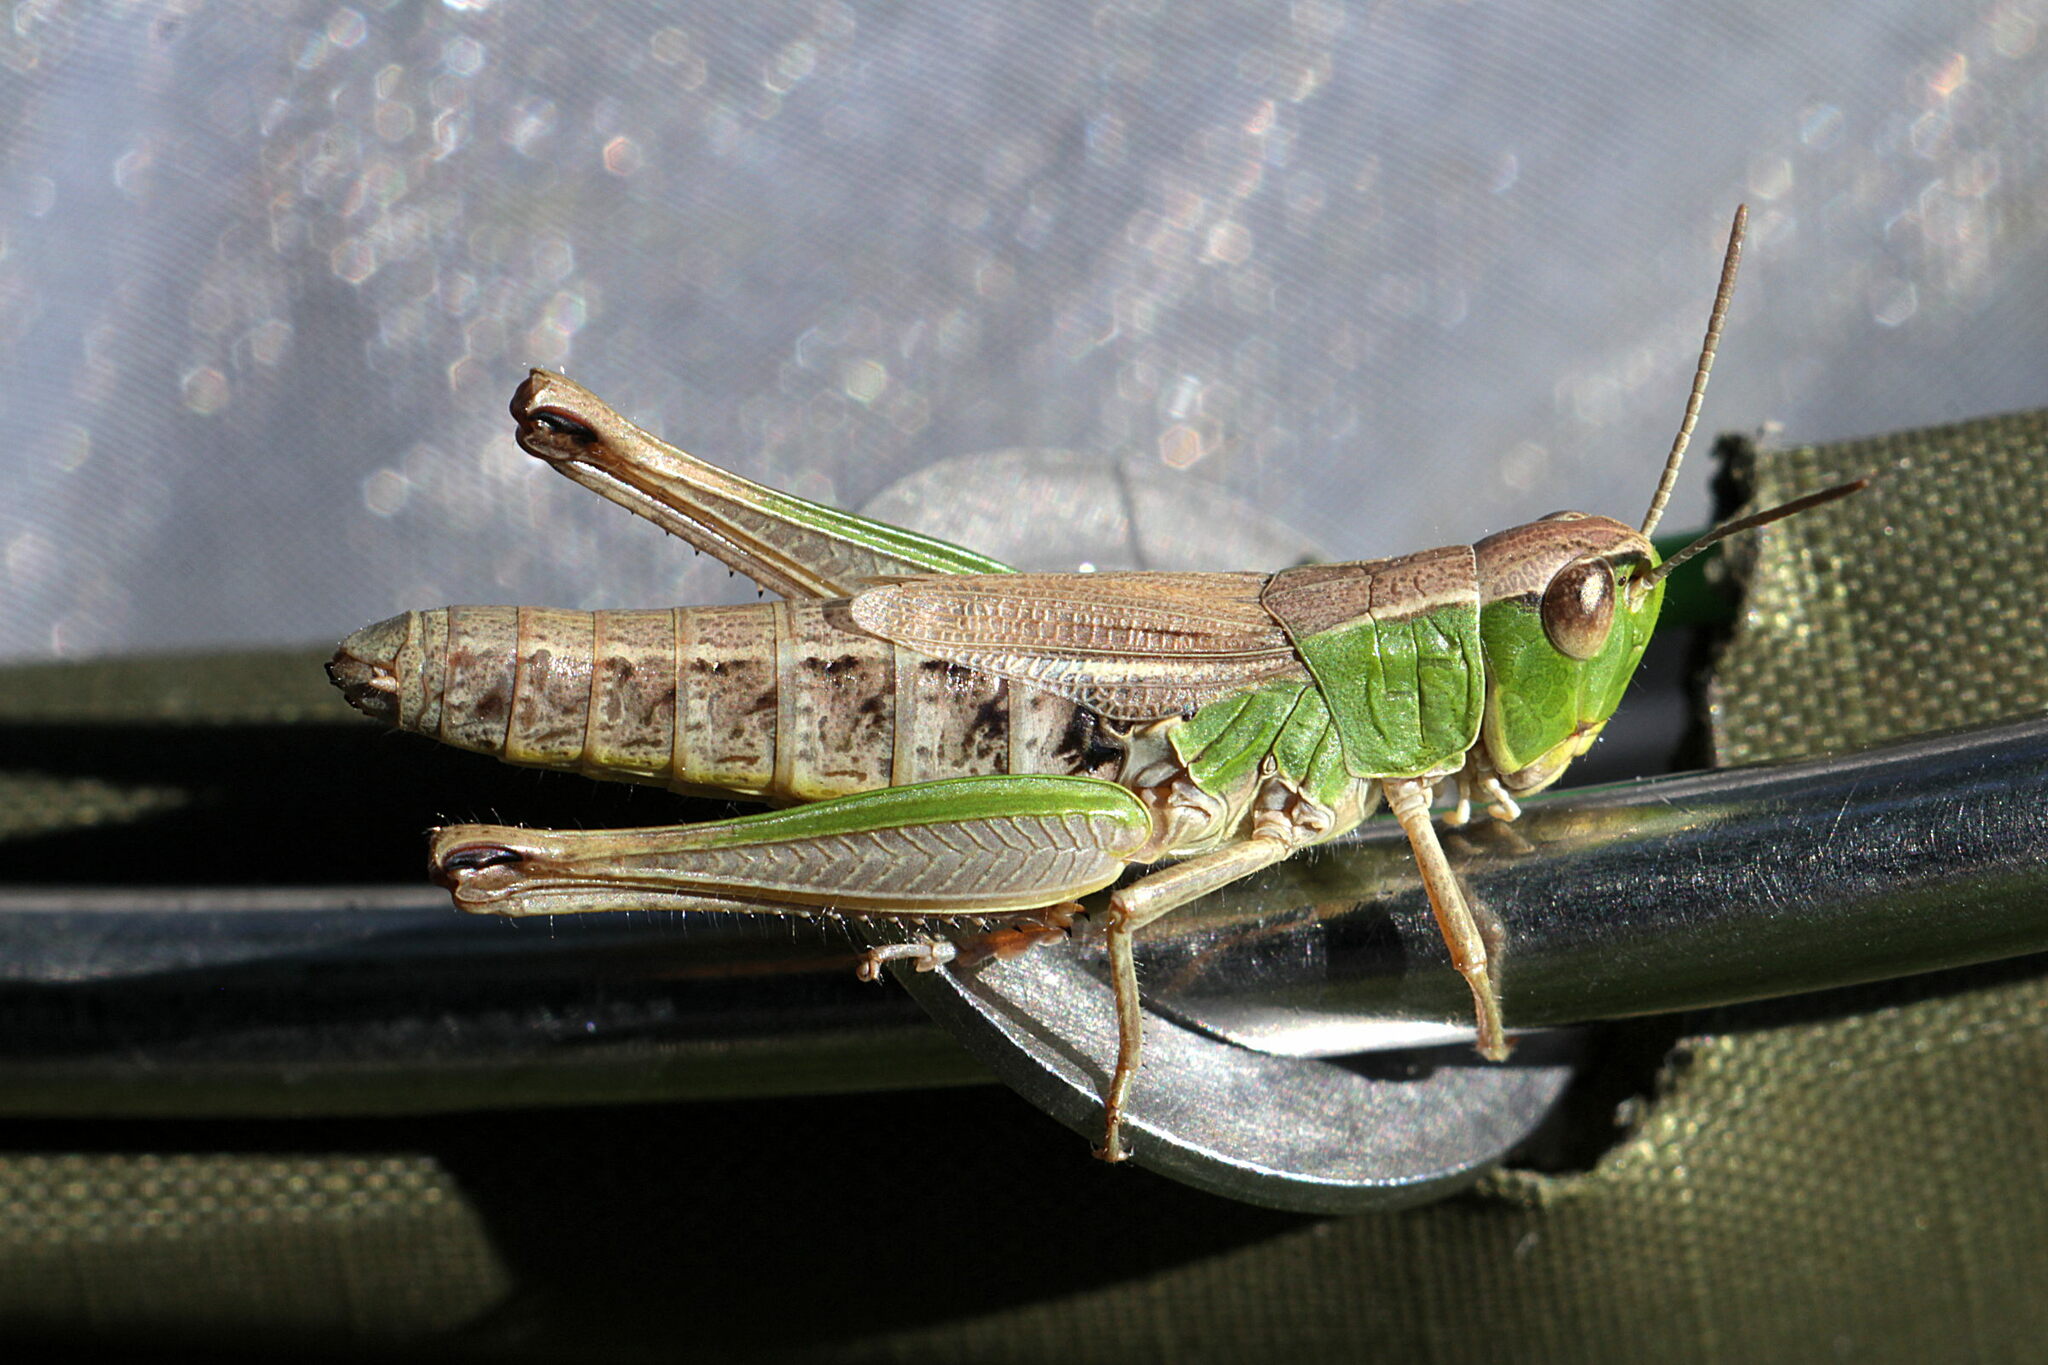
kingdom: Animalia
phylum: Arthropoda
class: Insecta
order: Orthoptera
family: Acrididae
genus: Pseudochorthippus
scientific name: Pseudochorthippus parallelus
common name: Meadow grasshopper
